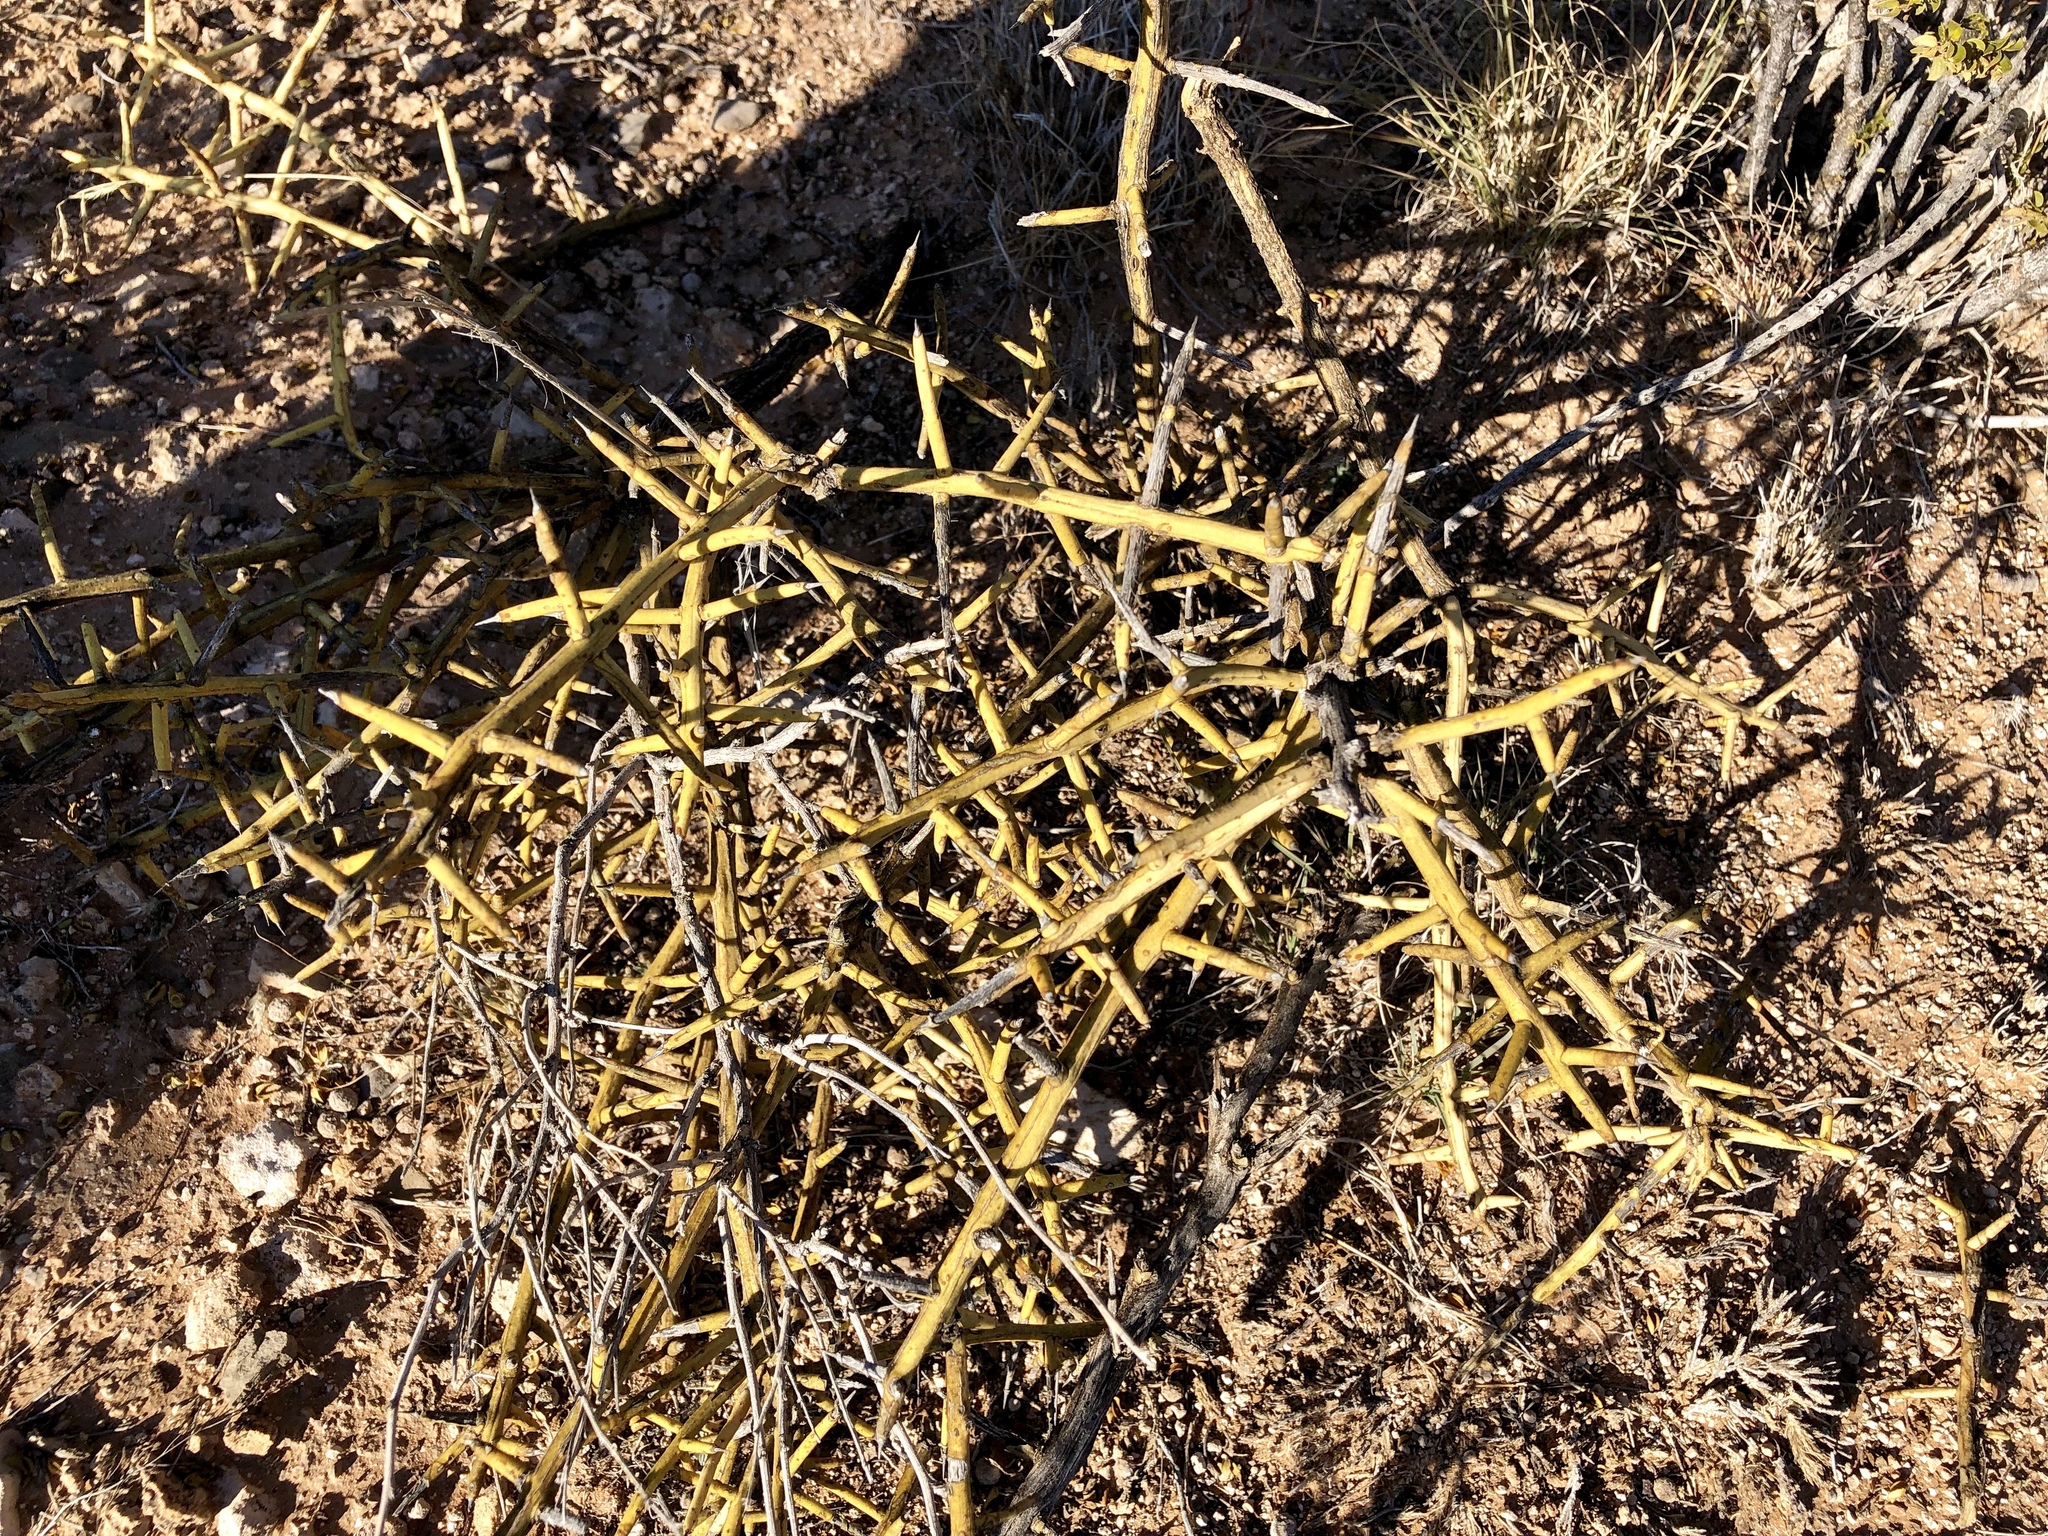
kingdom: Plantae
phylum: Tracheophyta
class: Magnoliopsida
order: Brassicales
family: Koeberliniaceae
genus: Koeberlinia
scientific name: Koeberlinia spinosa
